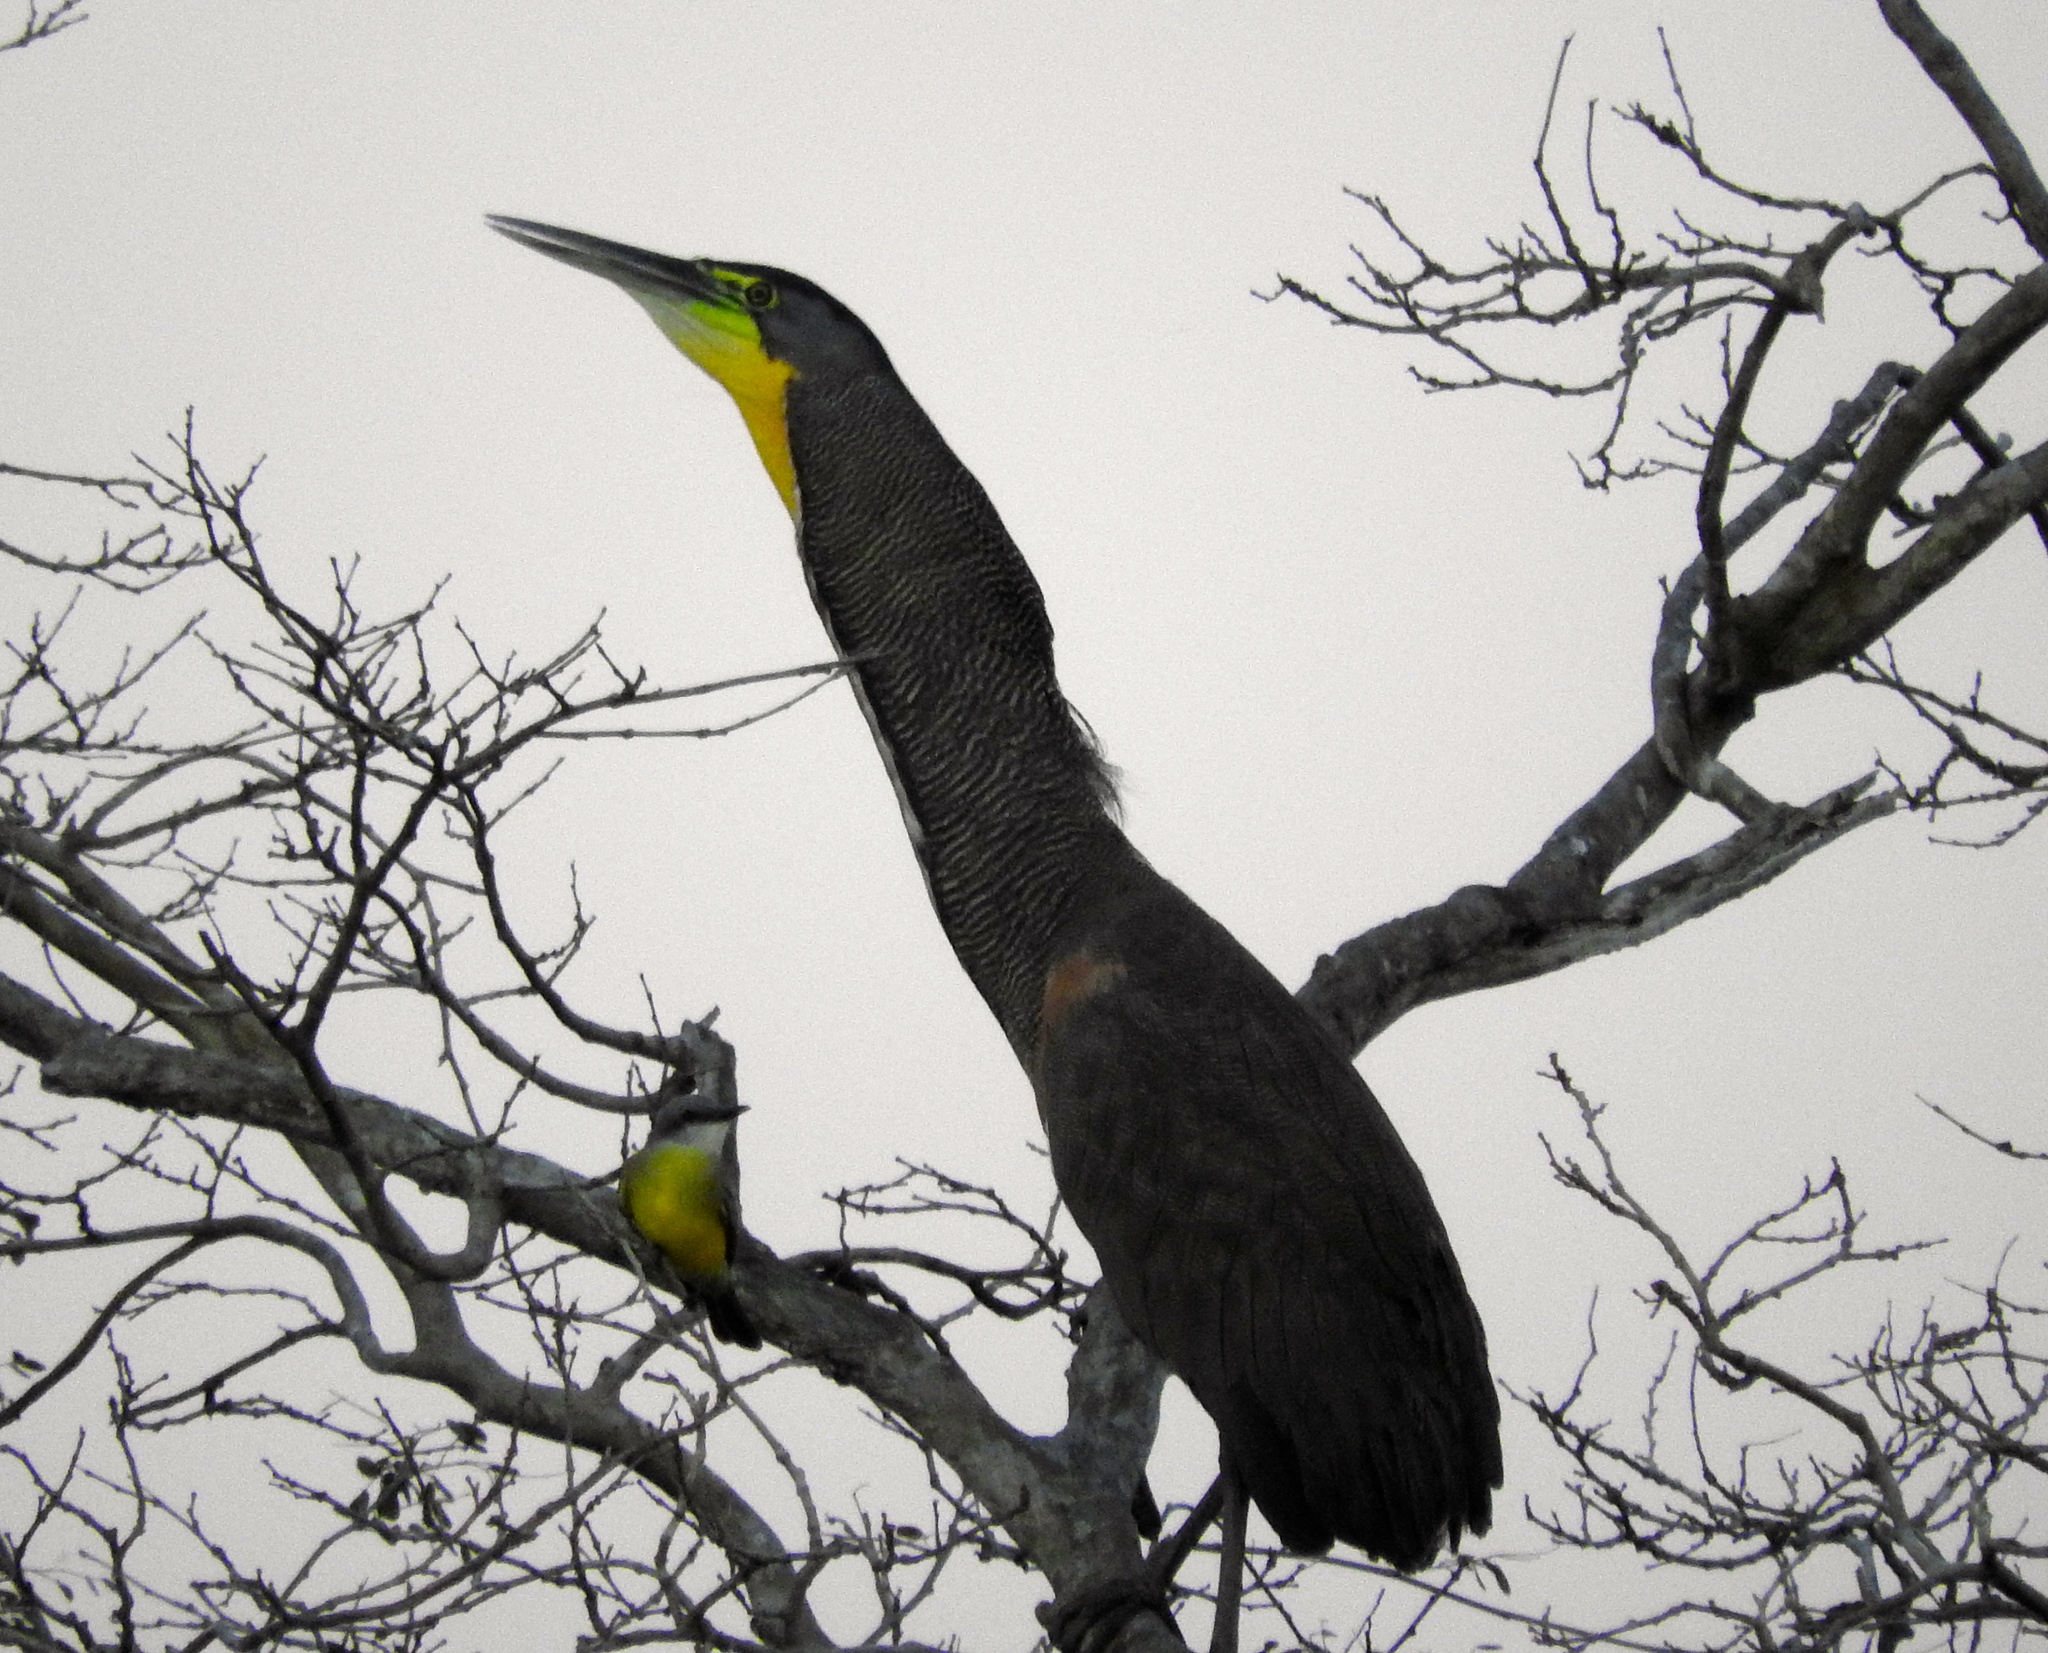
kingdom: Animalia
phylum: Chordata
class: Aves
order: Pelecaniformes
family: Ardeidae
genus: Tigrisoma
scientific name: Tigrisoma mexicanum
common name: Bare-throated tiger-heron
